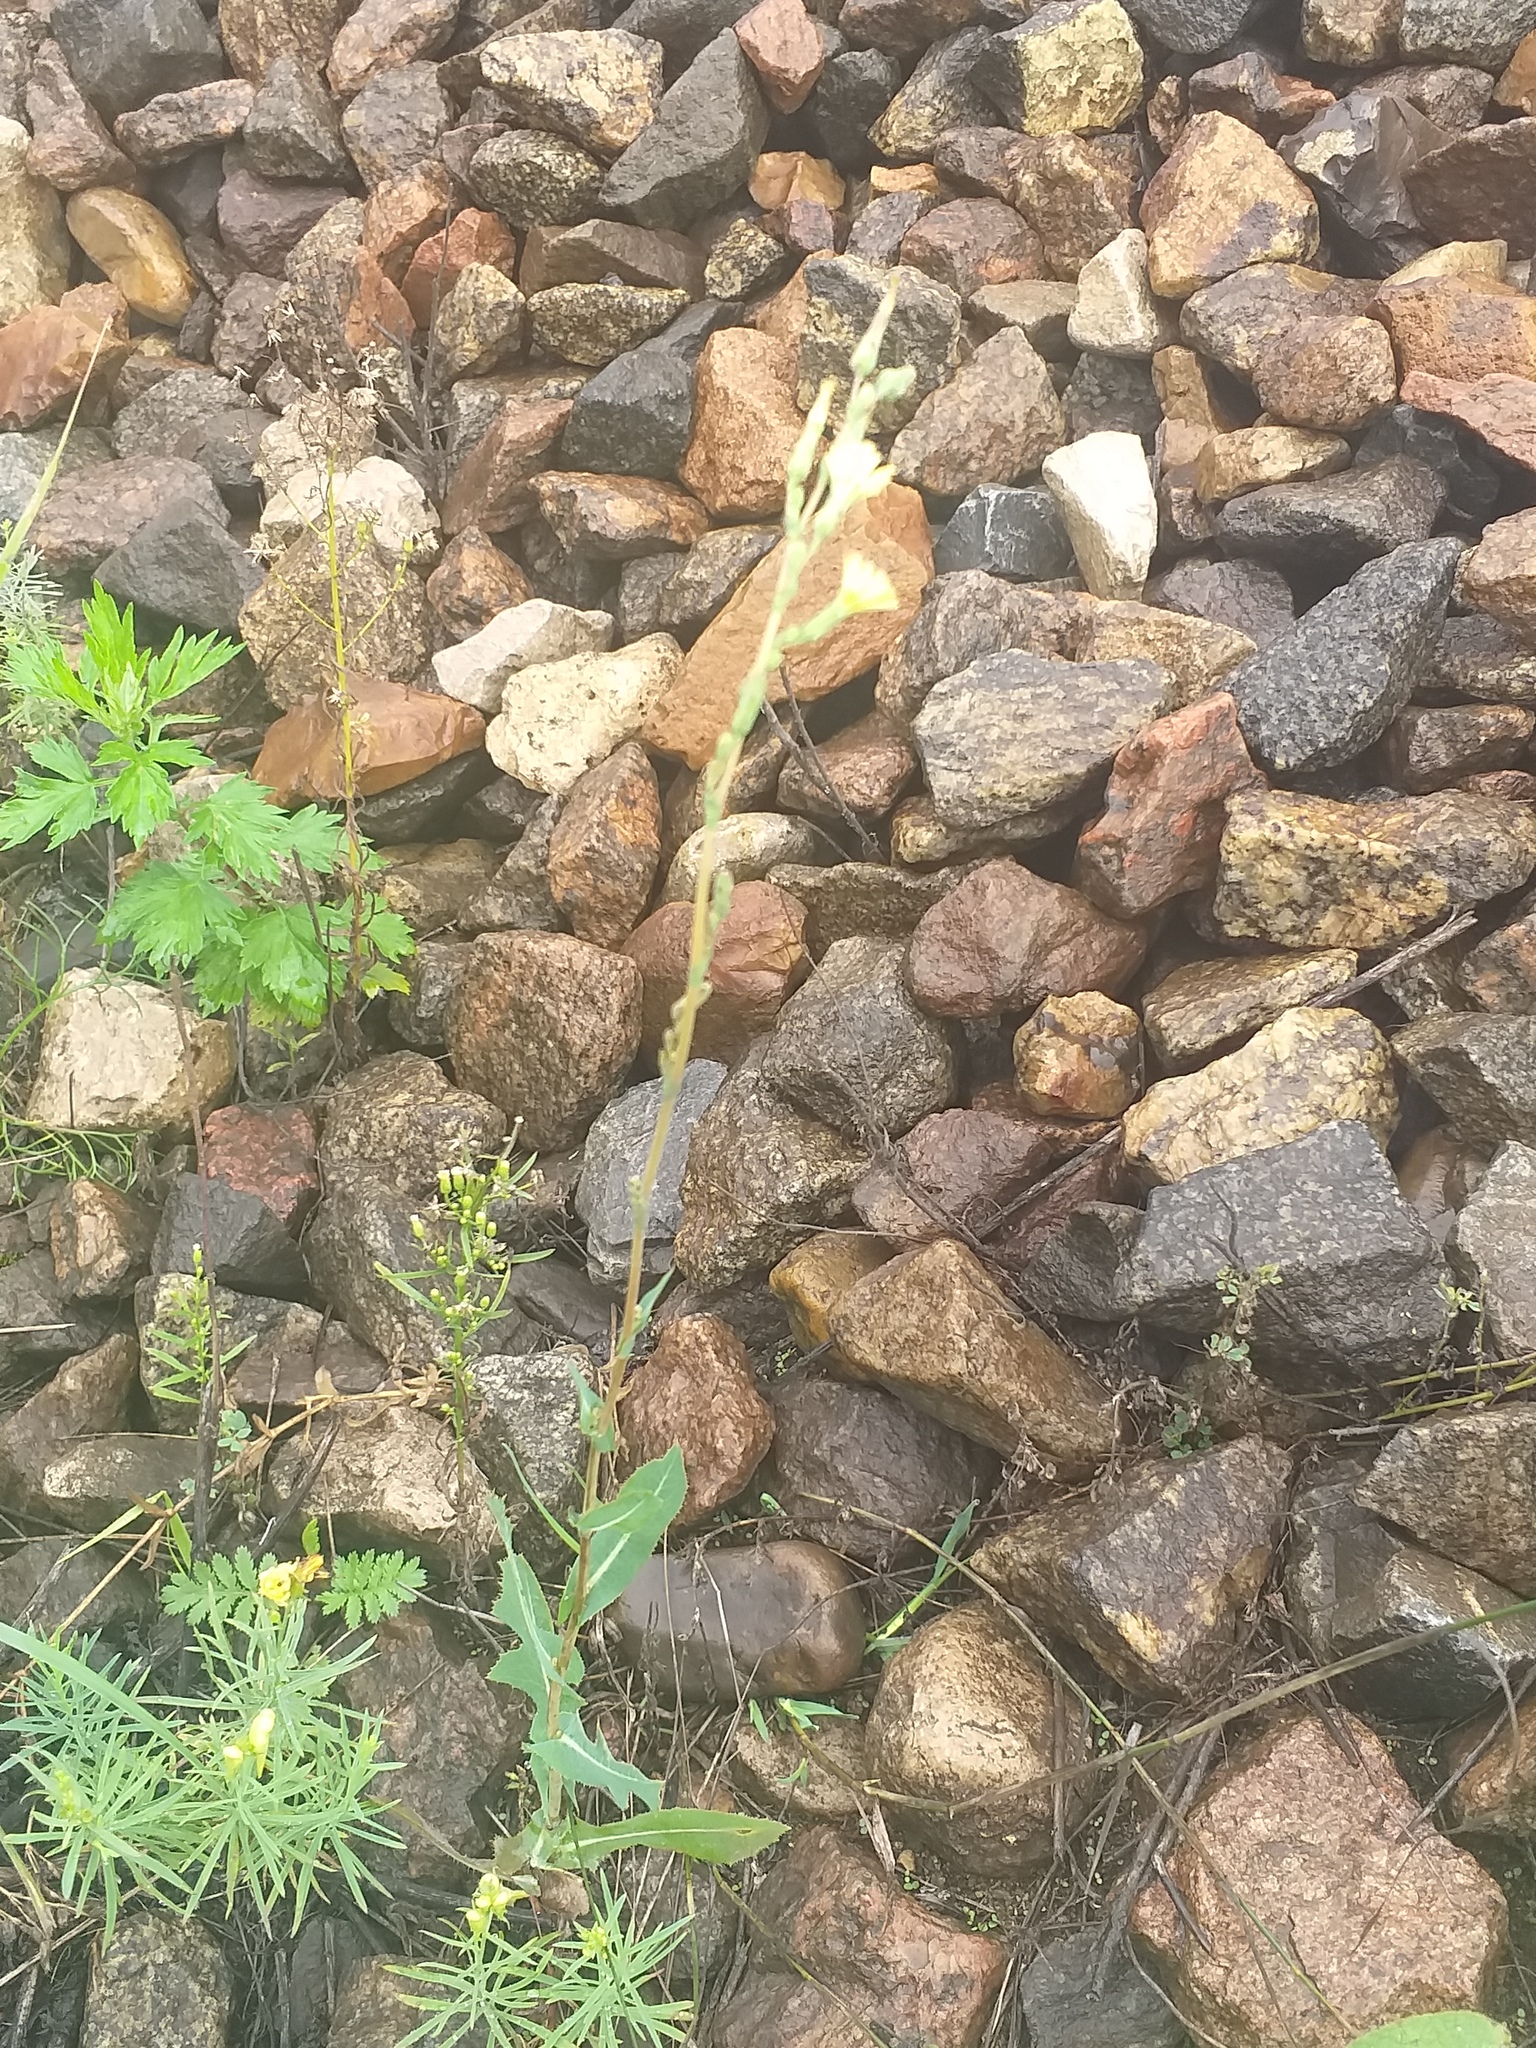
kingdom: Plantae
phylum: Tracheophyta
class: Magnoliopsida
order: Asterales
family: Asteraceae
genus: Lactuca
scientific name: Lactuca serriola
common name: Prickly lettuce
